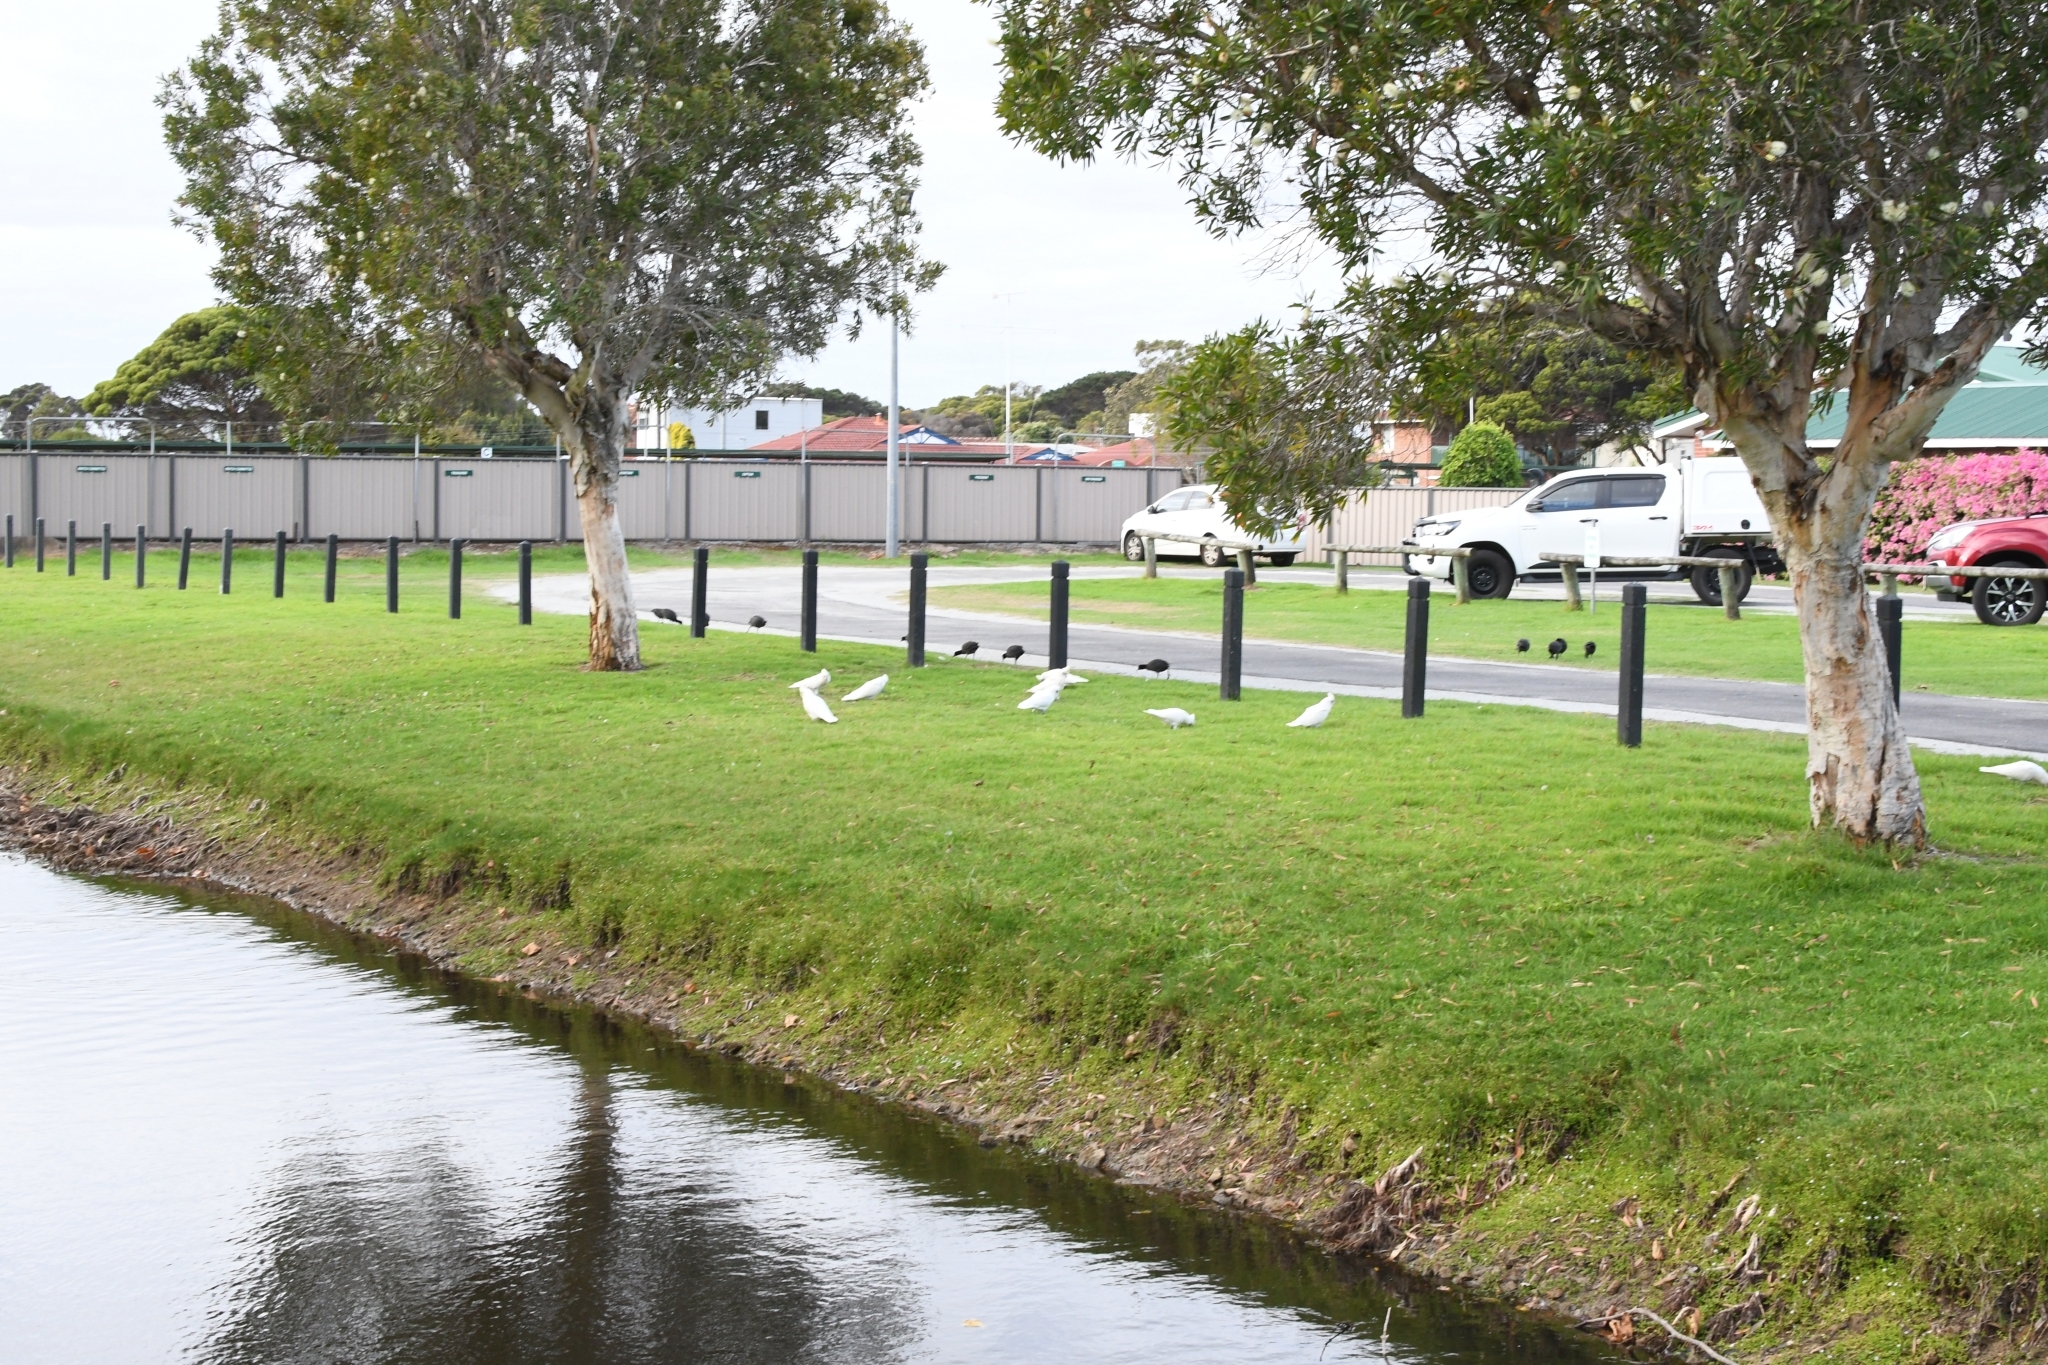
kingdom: Animalia
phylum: Chordata
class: Aves
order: Psittaciformes
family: Psittacidae
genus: Cacatua
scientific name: Cacatua sanguinea
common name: Little corella
